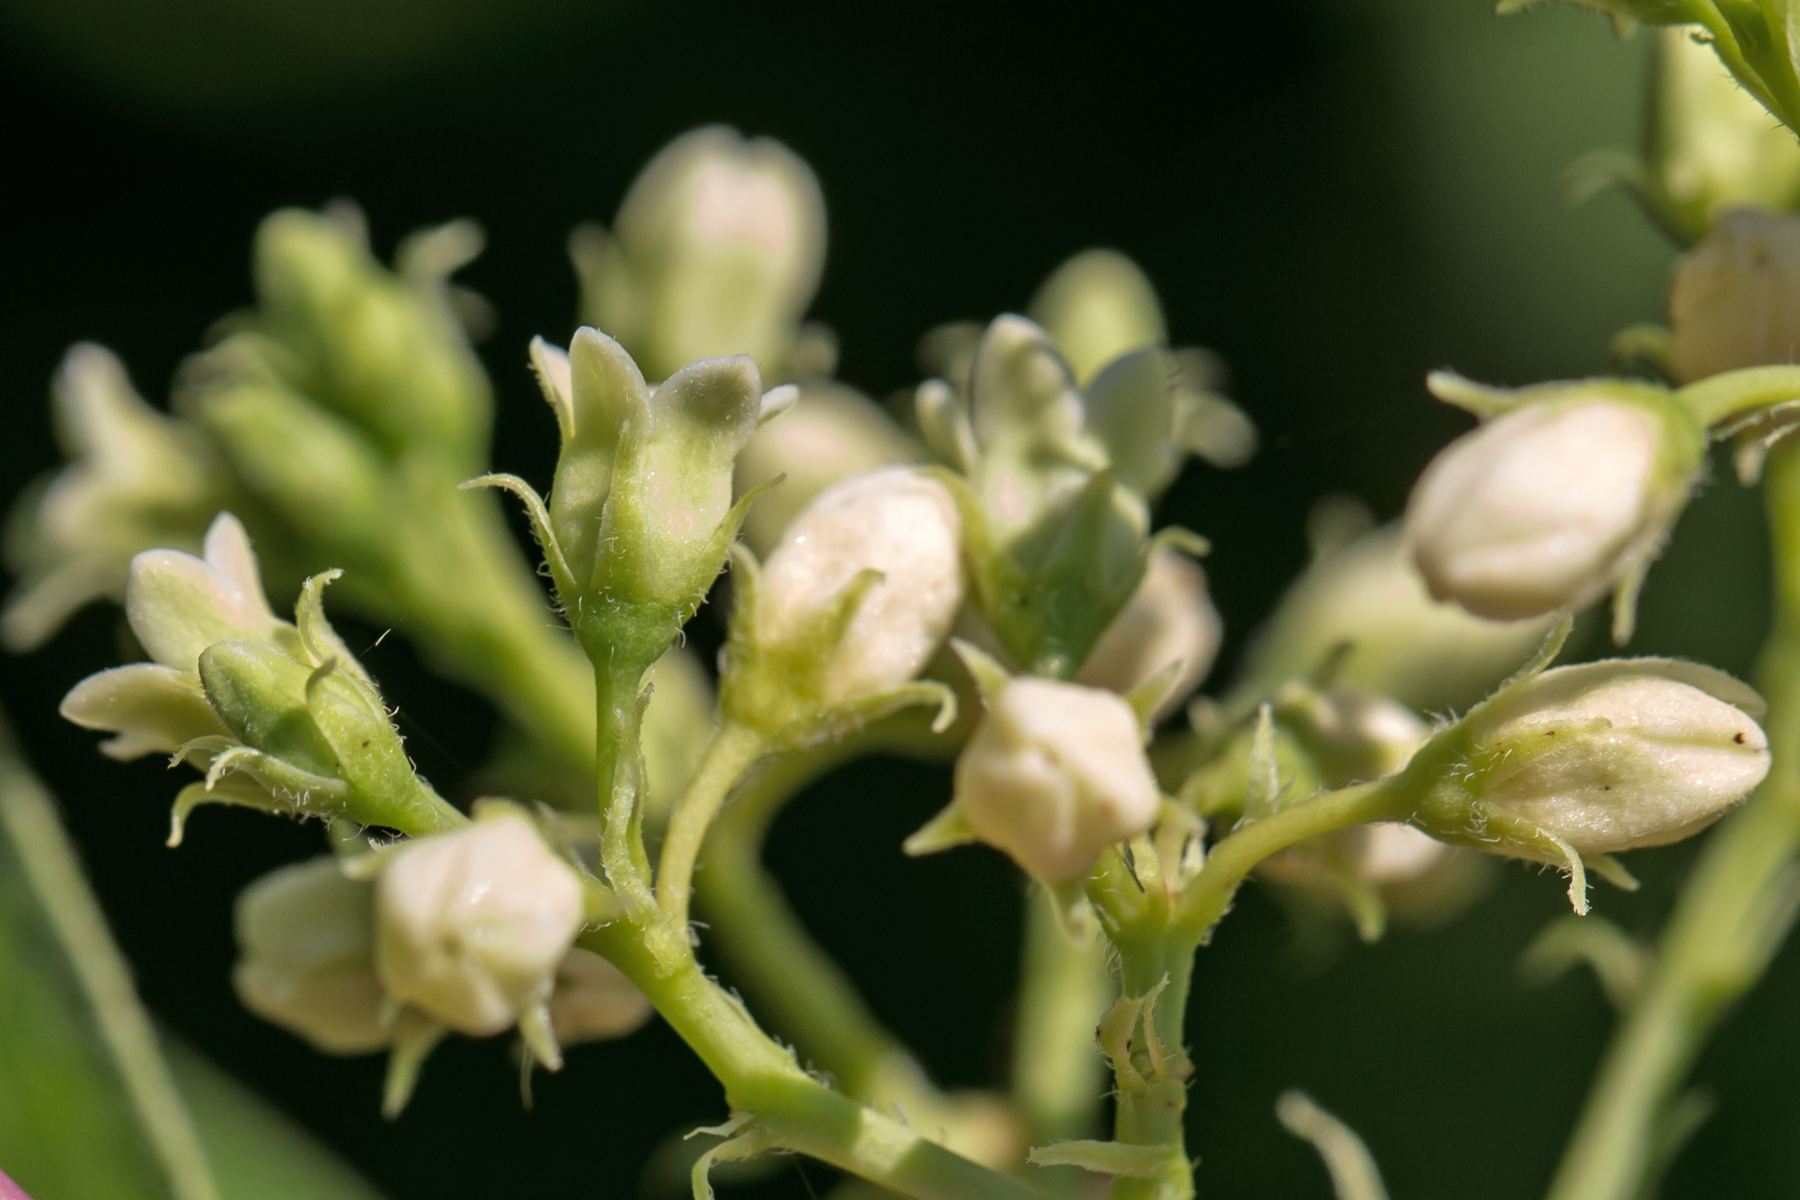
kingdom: Plantae
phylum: Tracheophyta
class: Magnoliopsida
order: Gentianales
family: Apocynaceae
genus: Apocynum
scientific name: Apocynum cannabinum
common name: Hemp dogbane
